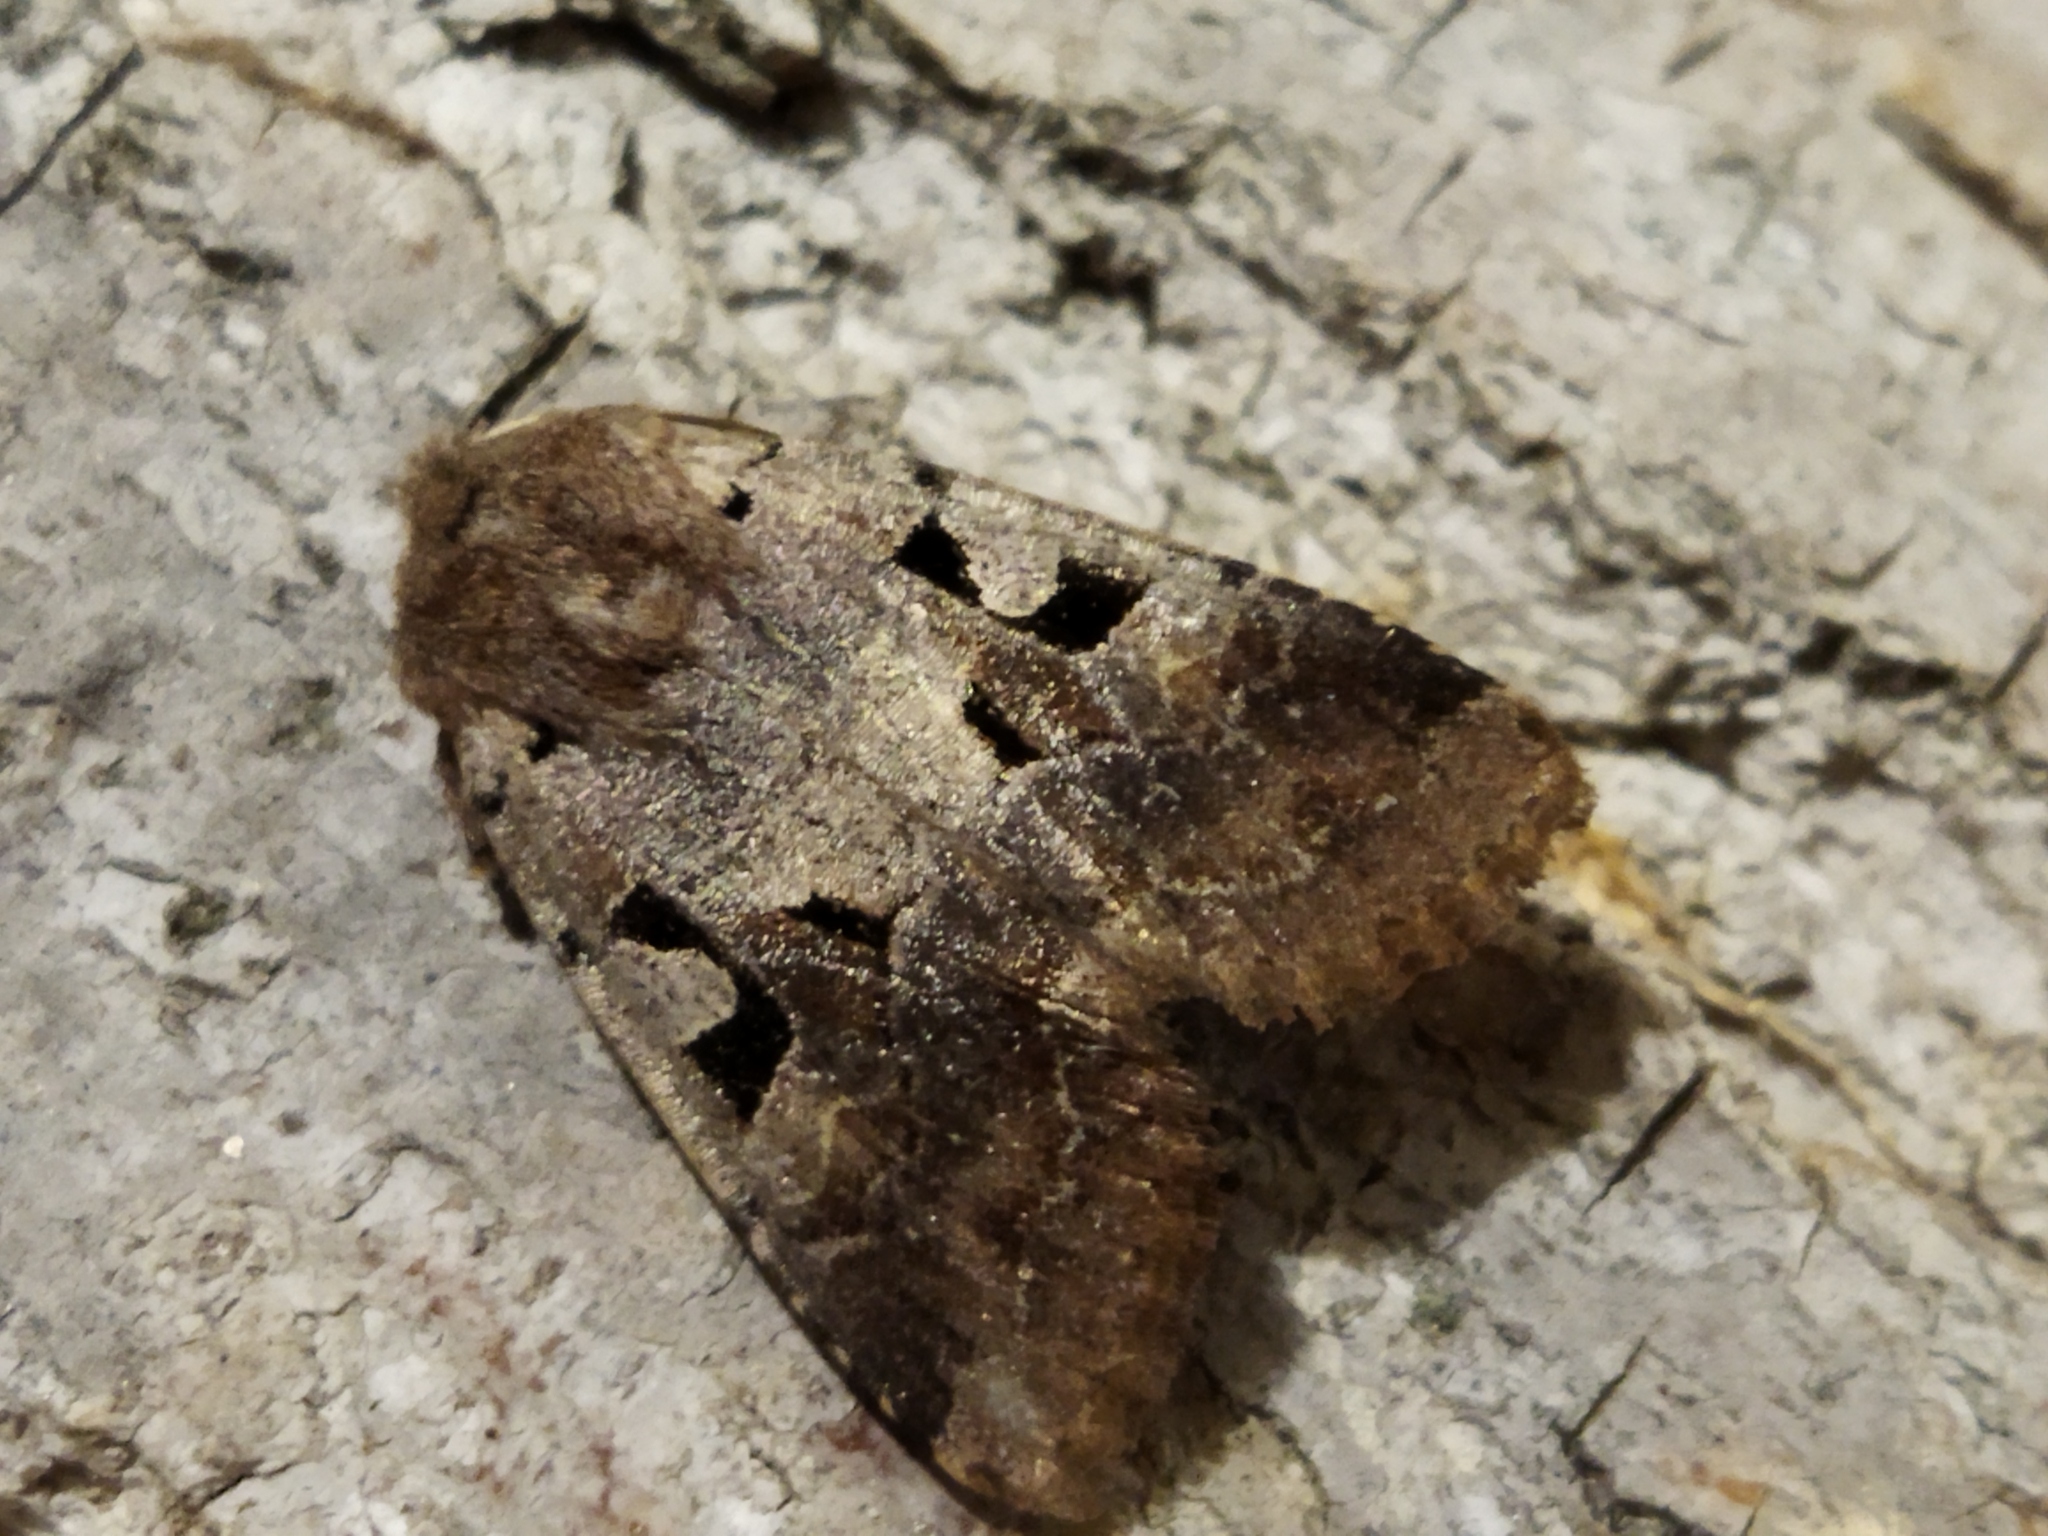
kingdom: Animalia
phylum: Arthropoda
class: Insecta
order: Lepidoptera
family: Noctuidae
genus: Orthosia
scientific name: Orthosia gothica
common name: Hebrew character
